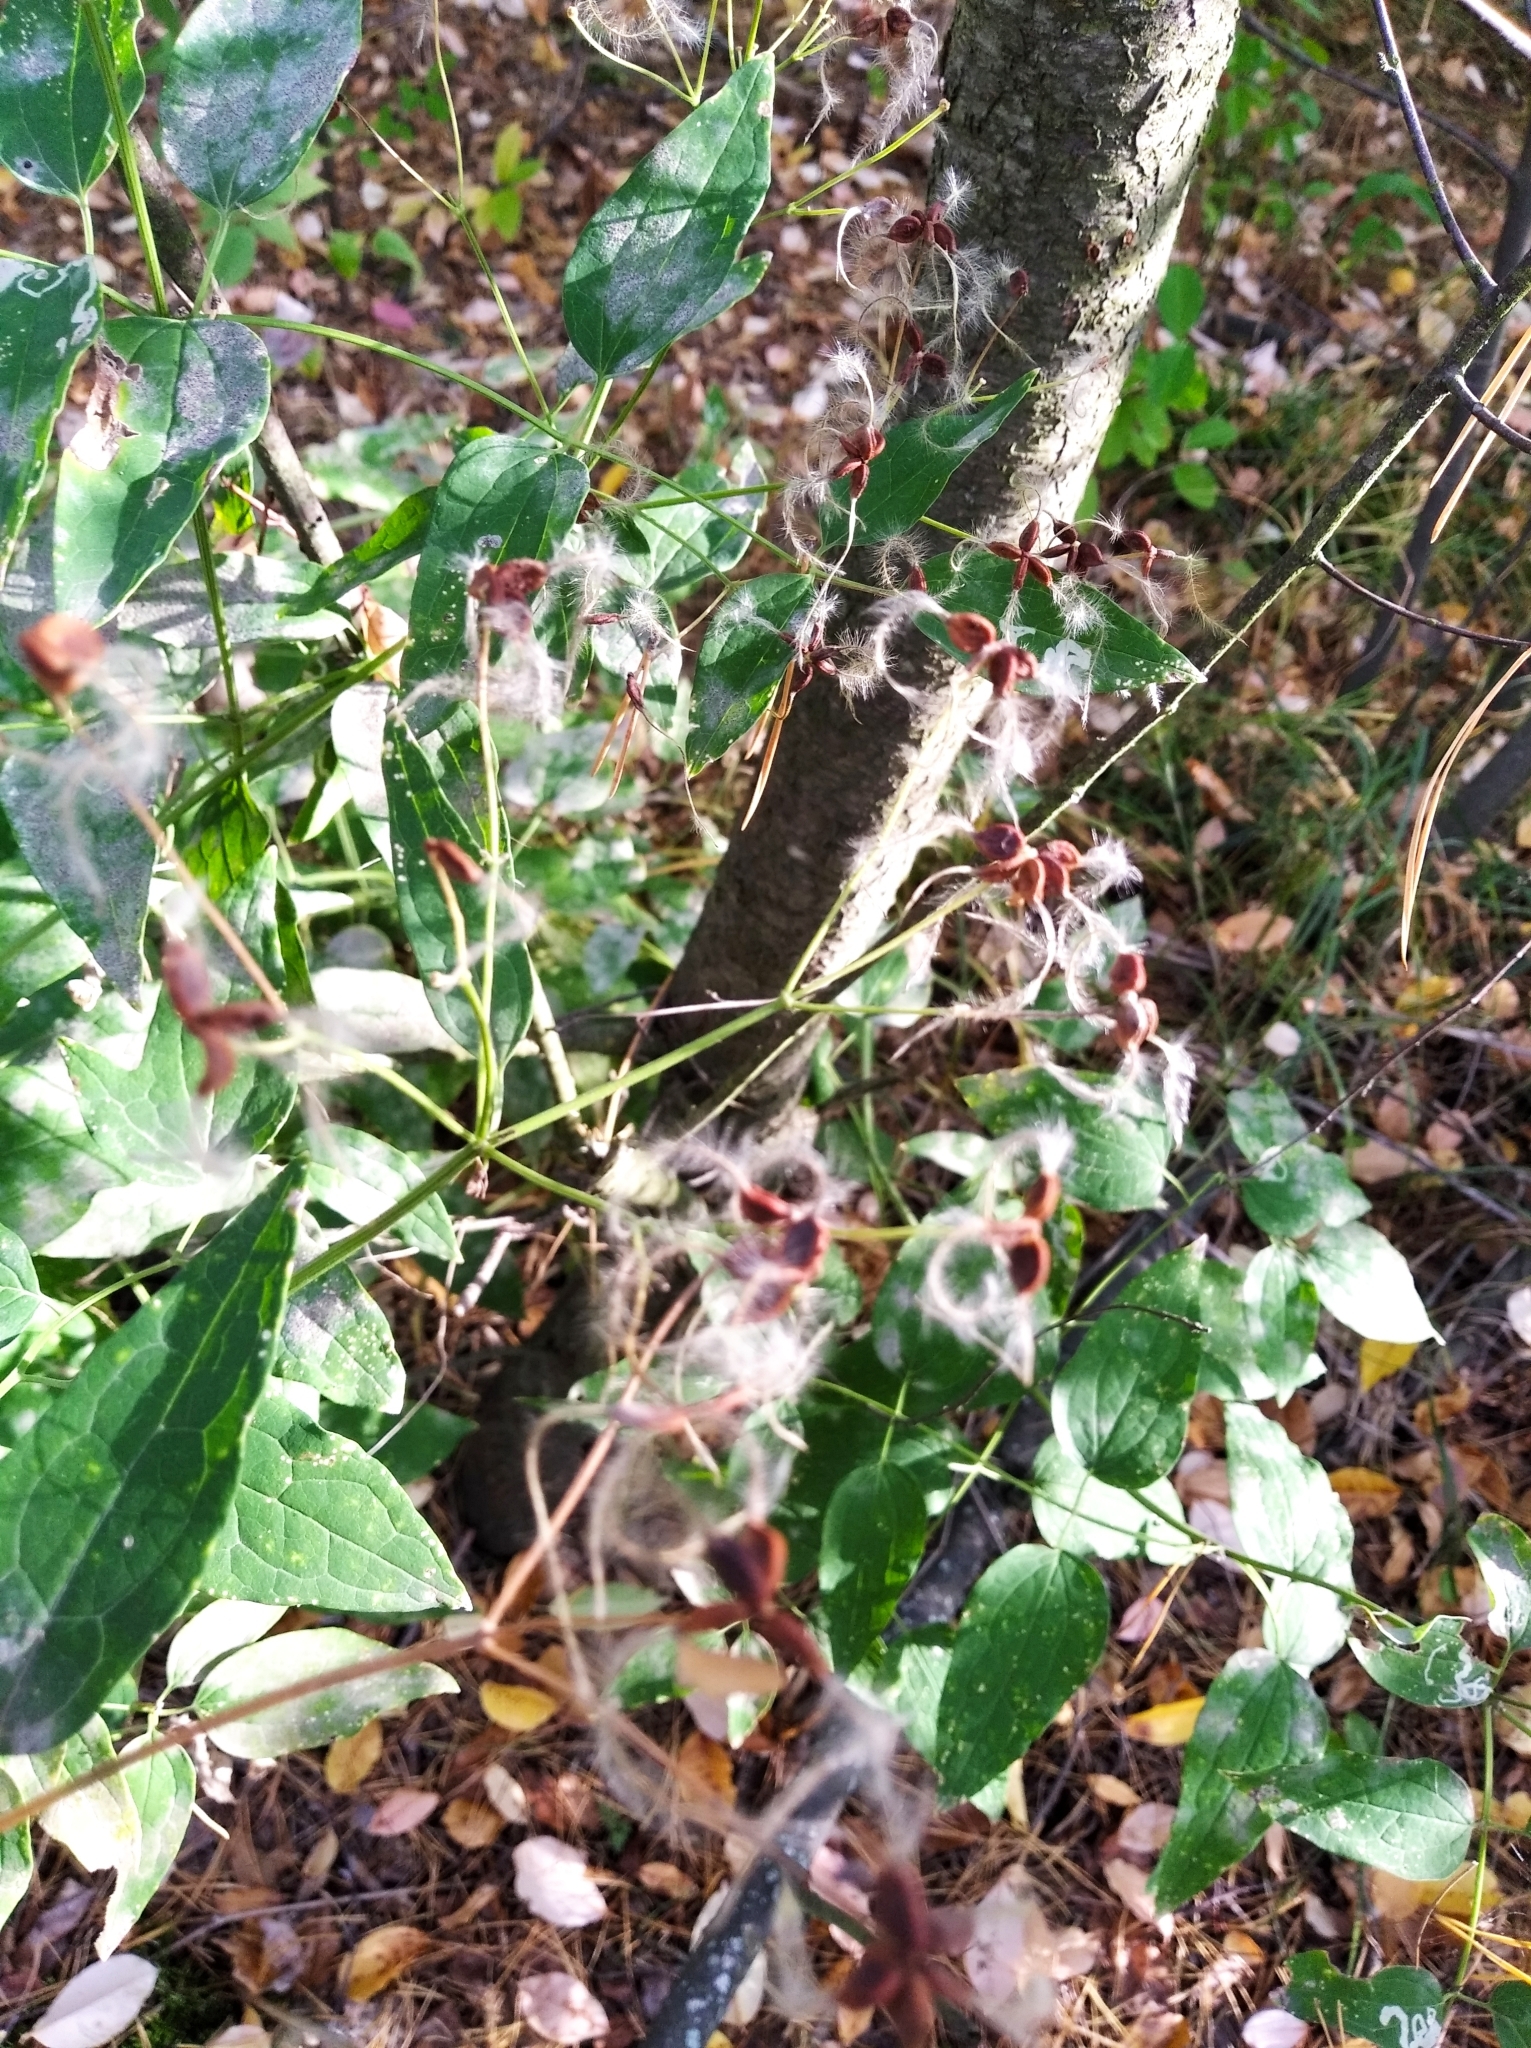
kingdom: Plantae
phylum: Tracheophyta
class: Magnoliopsida
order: Ranunculales
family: Ranunculaceae
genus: Clematis
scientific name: Clematis recta
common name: Ground clematis
